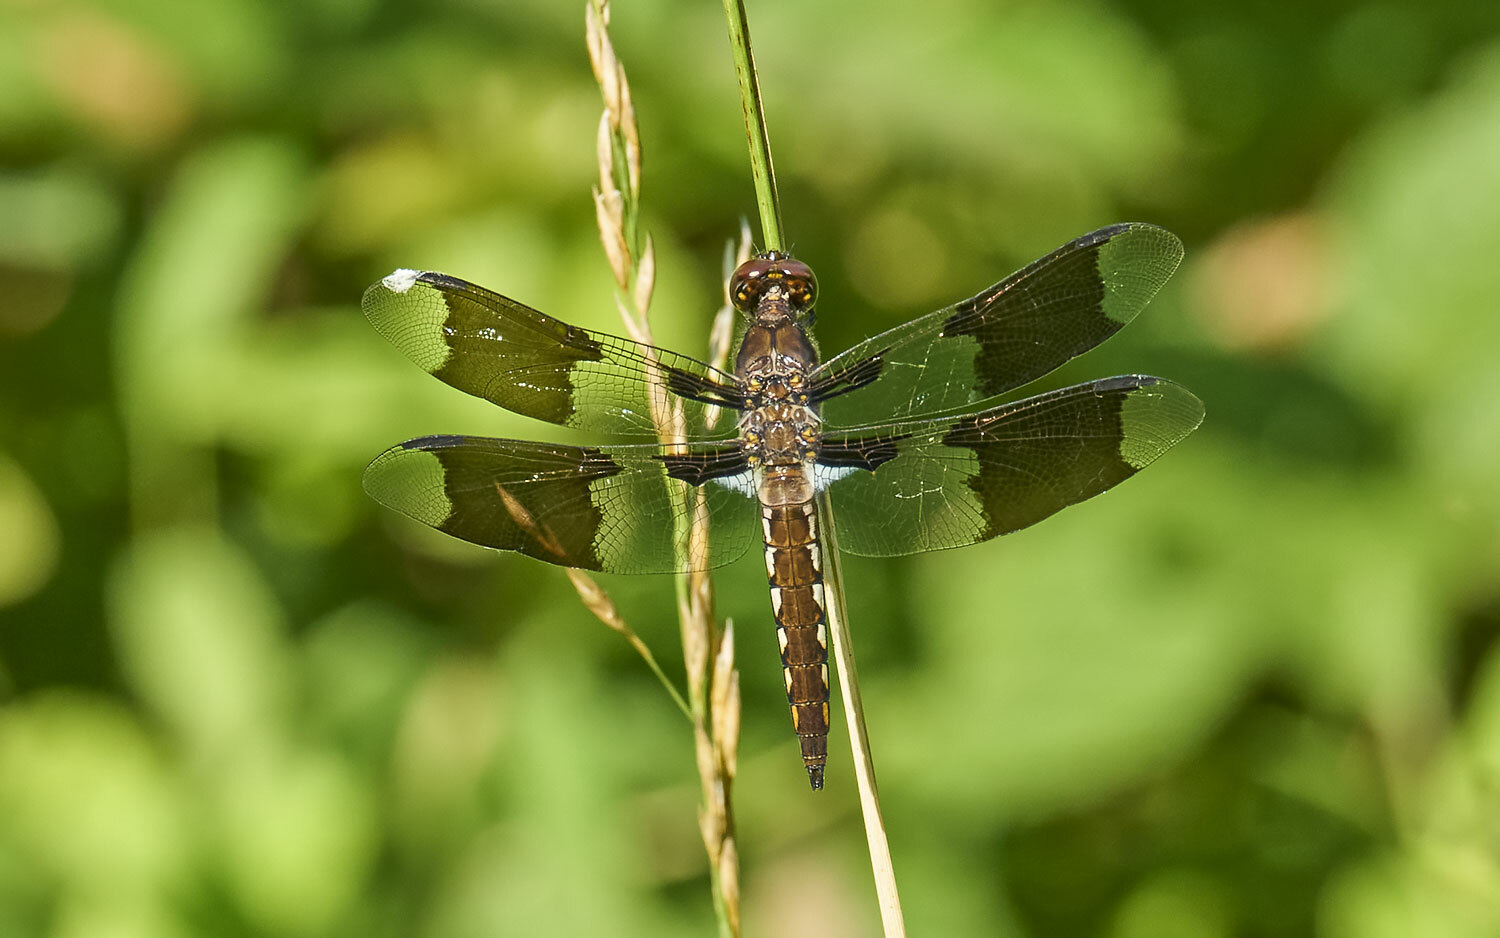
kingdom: Animalia
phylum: Arthropoda
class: Insecta
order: Odonata
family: Libellulidae
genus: Plathemis
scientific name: Plathemis lydia
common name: Common whitetail
